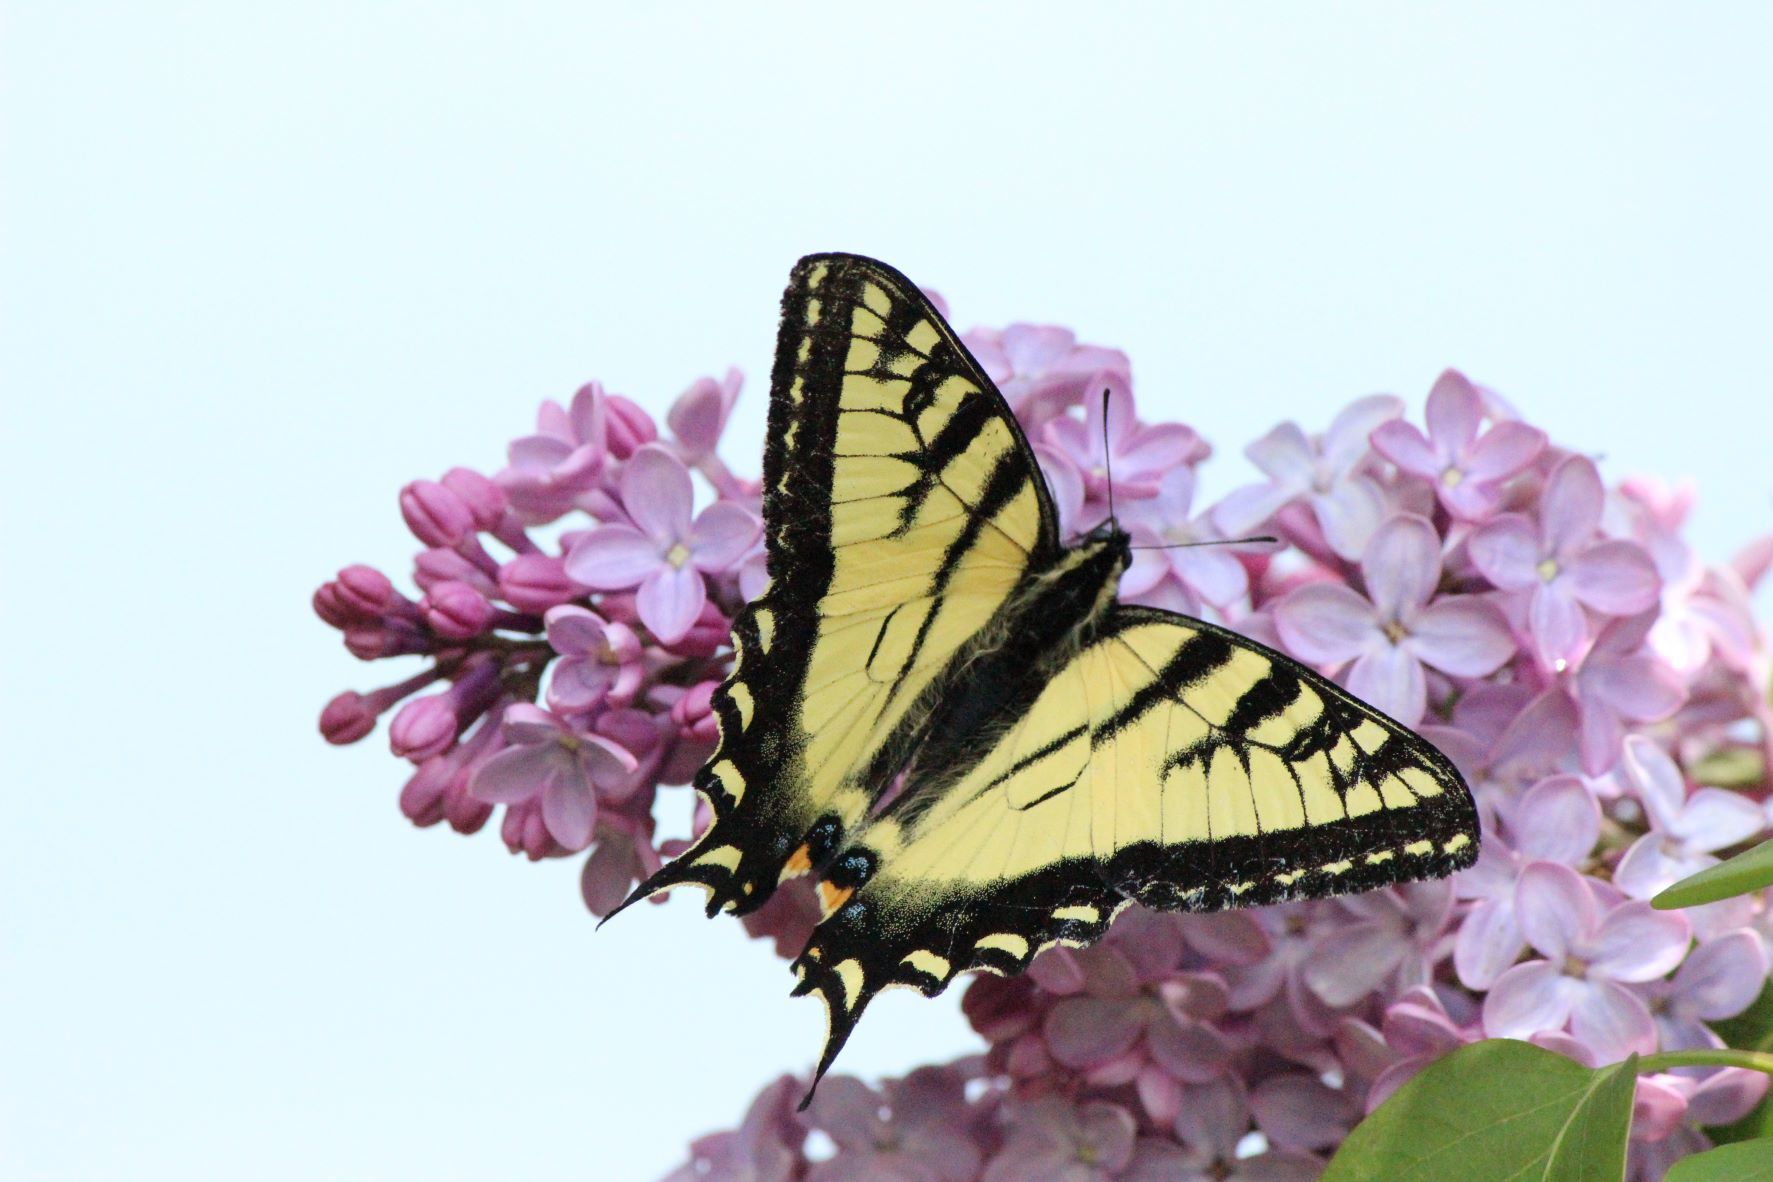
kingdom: Animalia
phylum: Arthropoda
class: Insecta
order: Lepidoptera
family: Papilionidae
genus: Papilio
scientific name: Papilio canadensis
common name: Canadian tiger swallowtail
